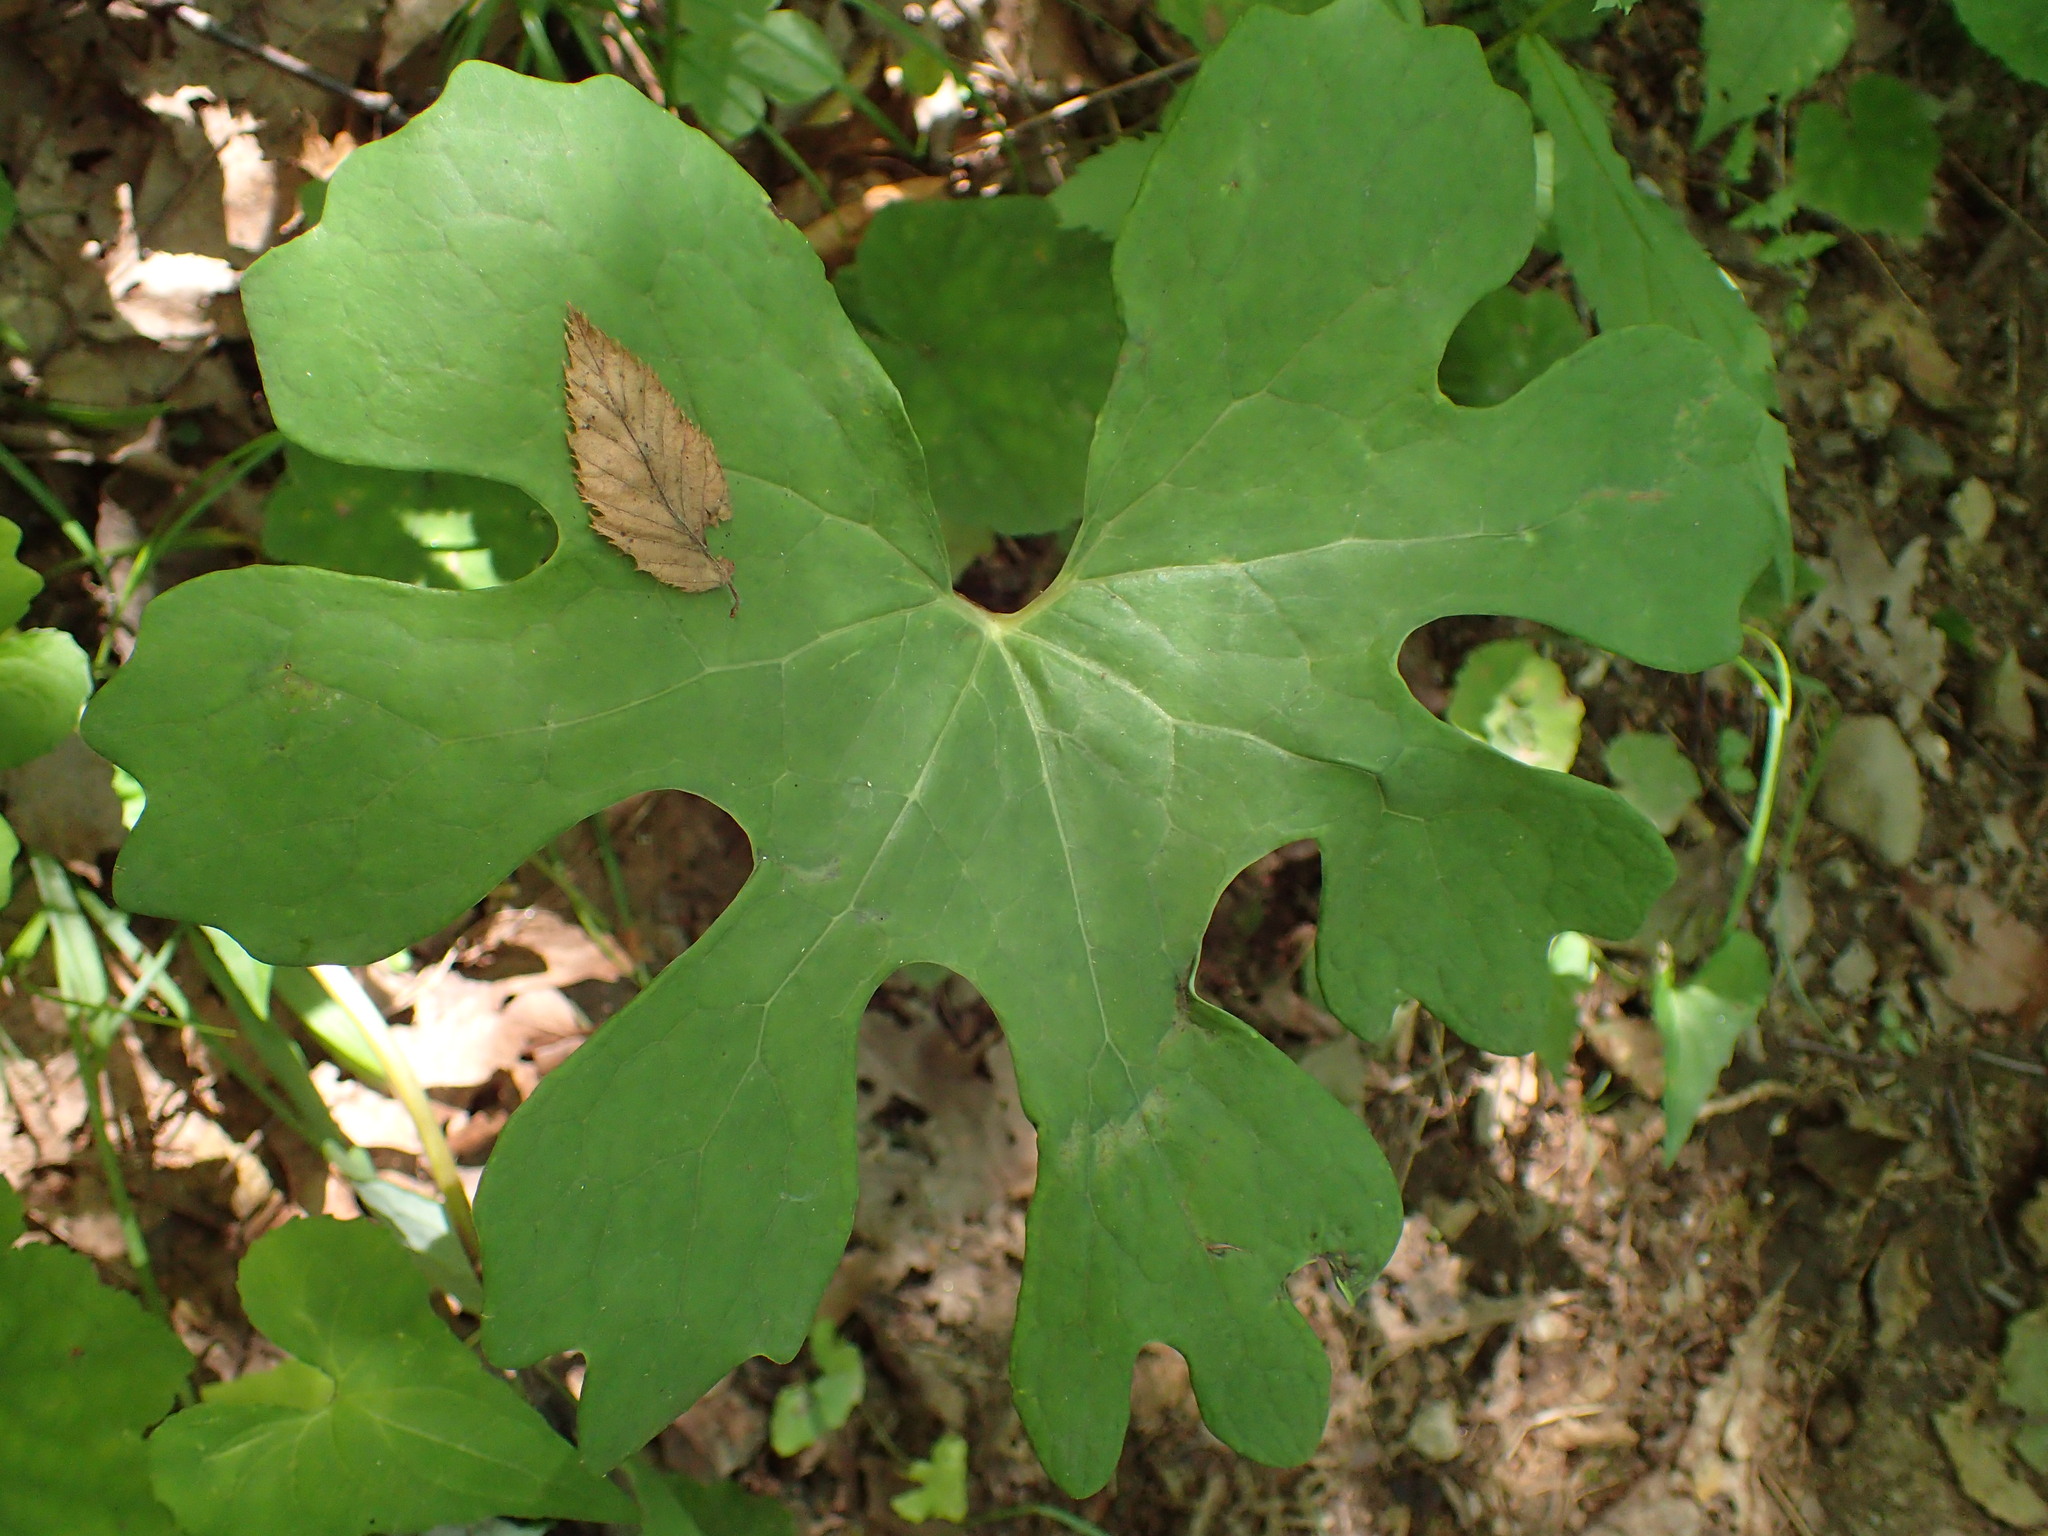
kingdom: Plantae
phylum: Tracheophyta
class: Magnoliopsida
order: Ranunculales
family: Papaveraceae
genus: Sanguinaria
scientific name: Sanguinaria canadensis
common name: Bloodroot
